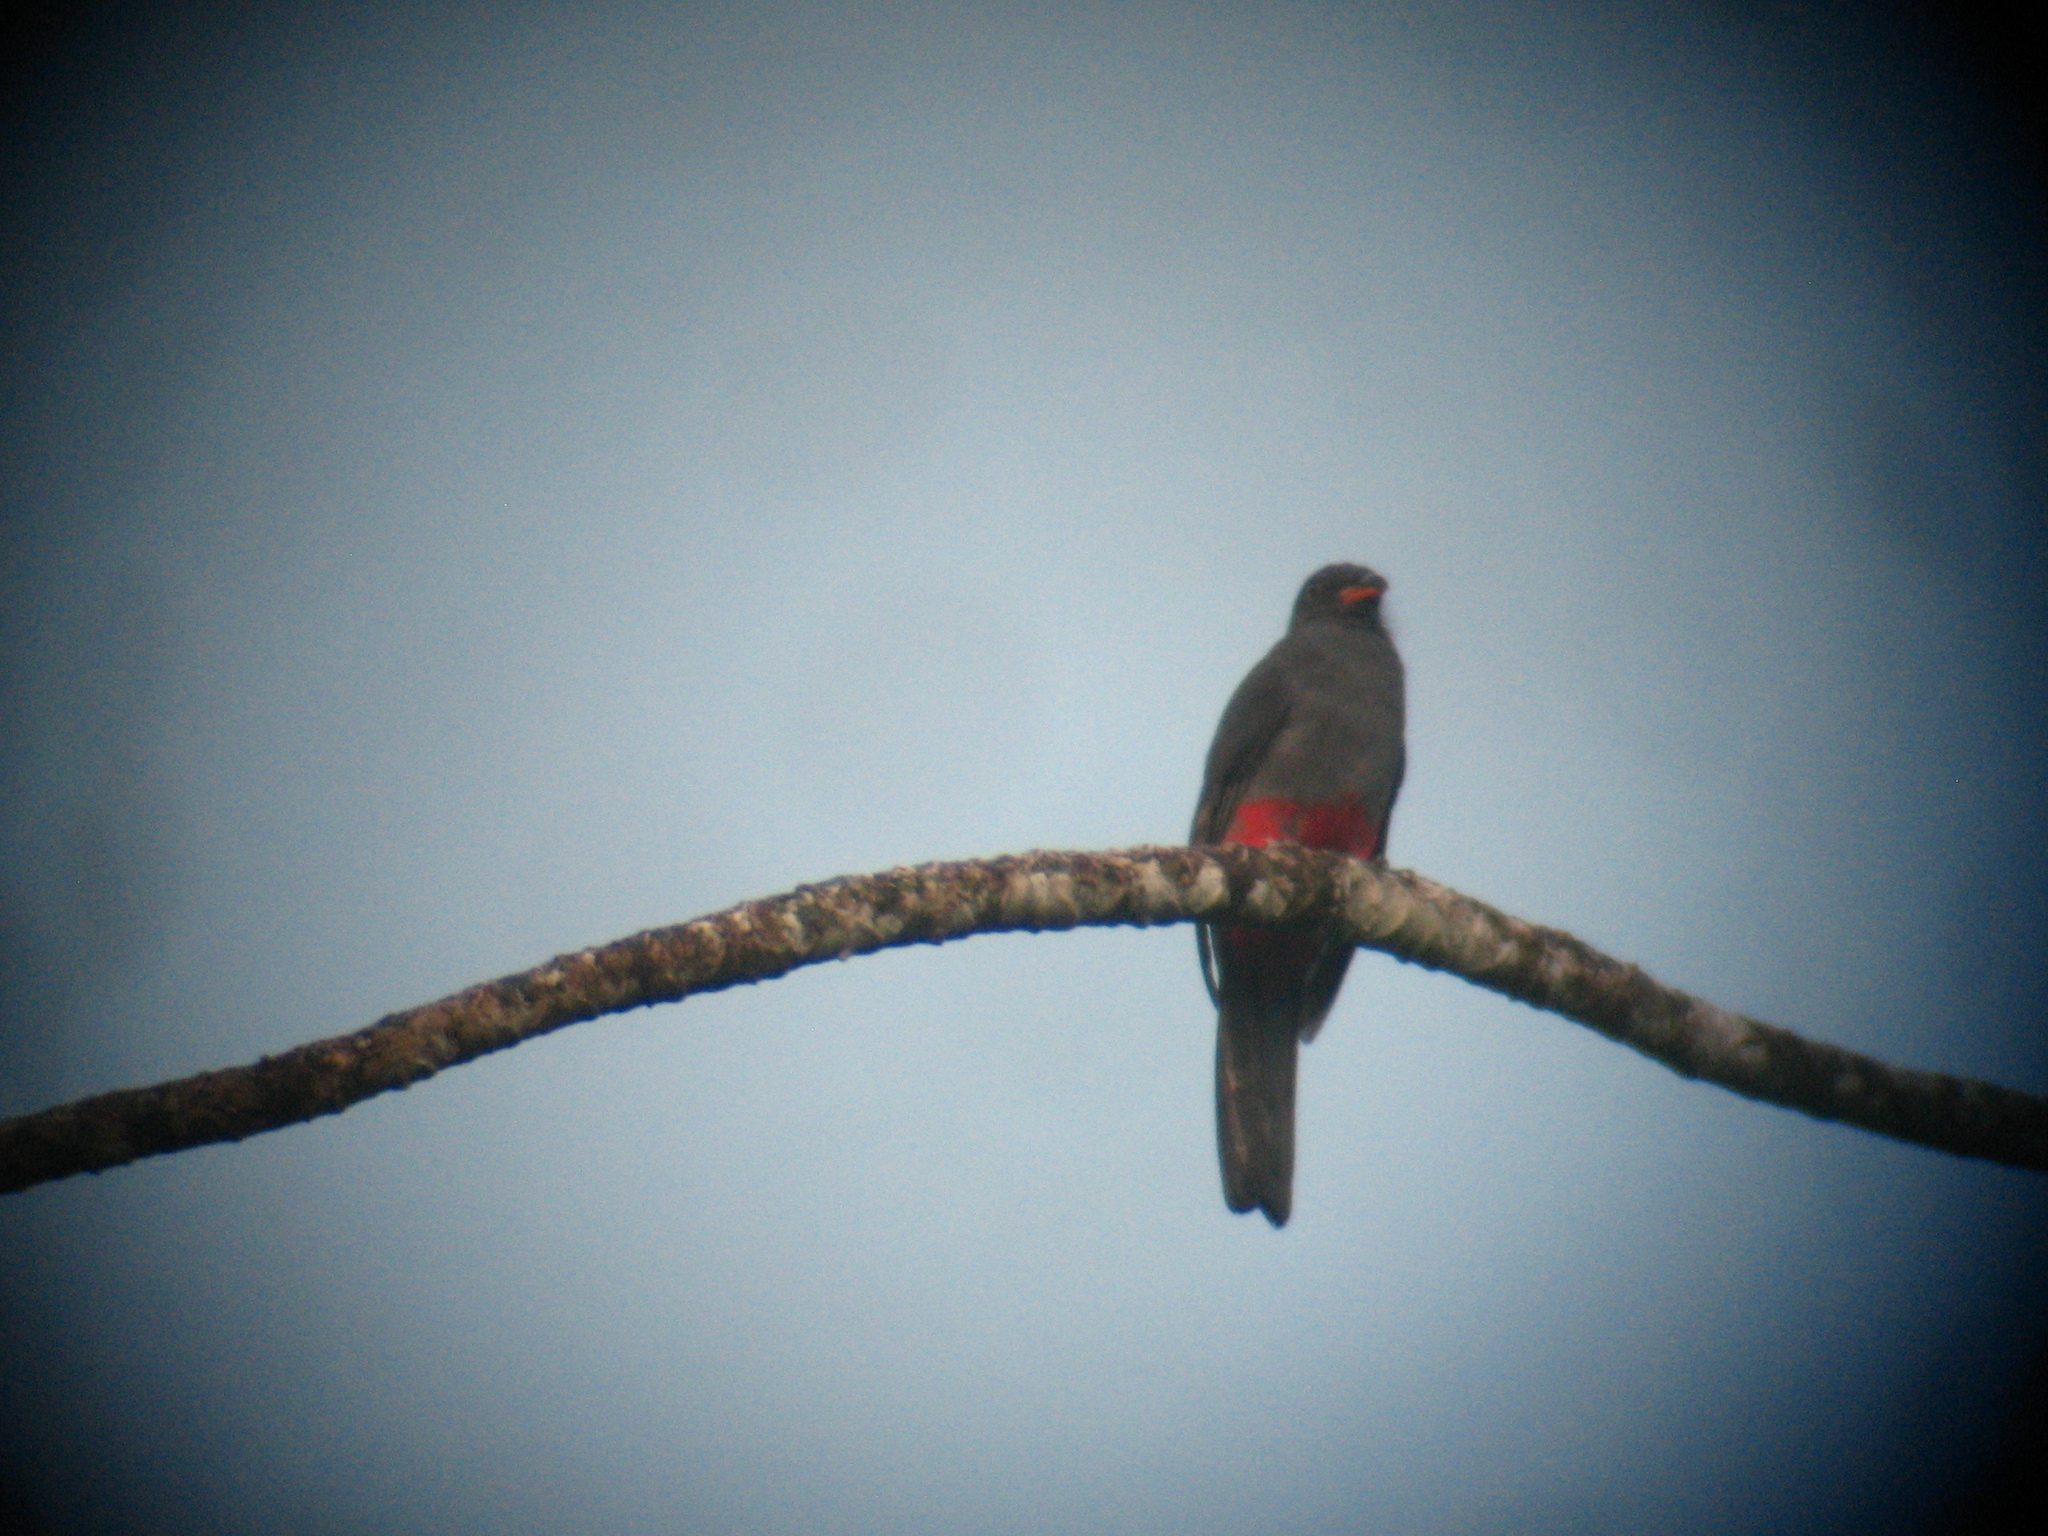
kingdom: Animalia
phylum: Chordata
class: Aves
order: Trogoniformes
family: Trogonidae
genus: Trogon
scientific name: Trogon massena
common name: Slaty-tailed trogon
